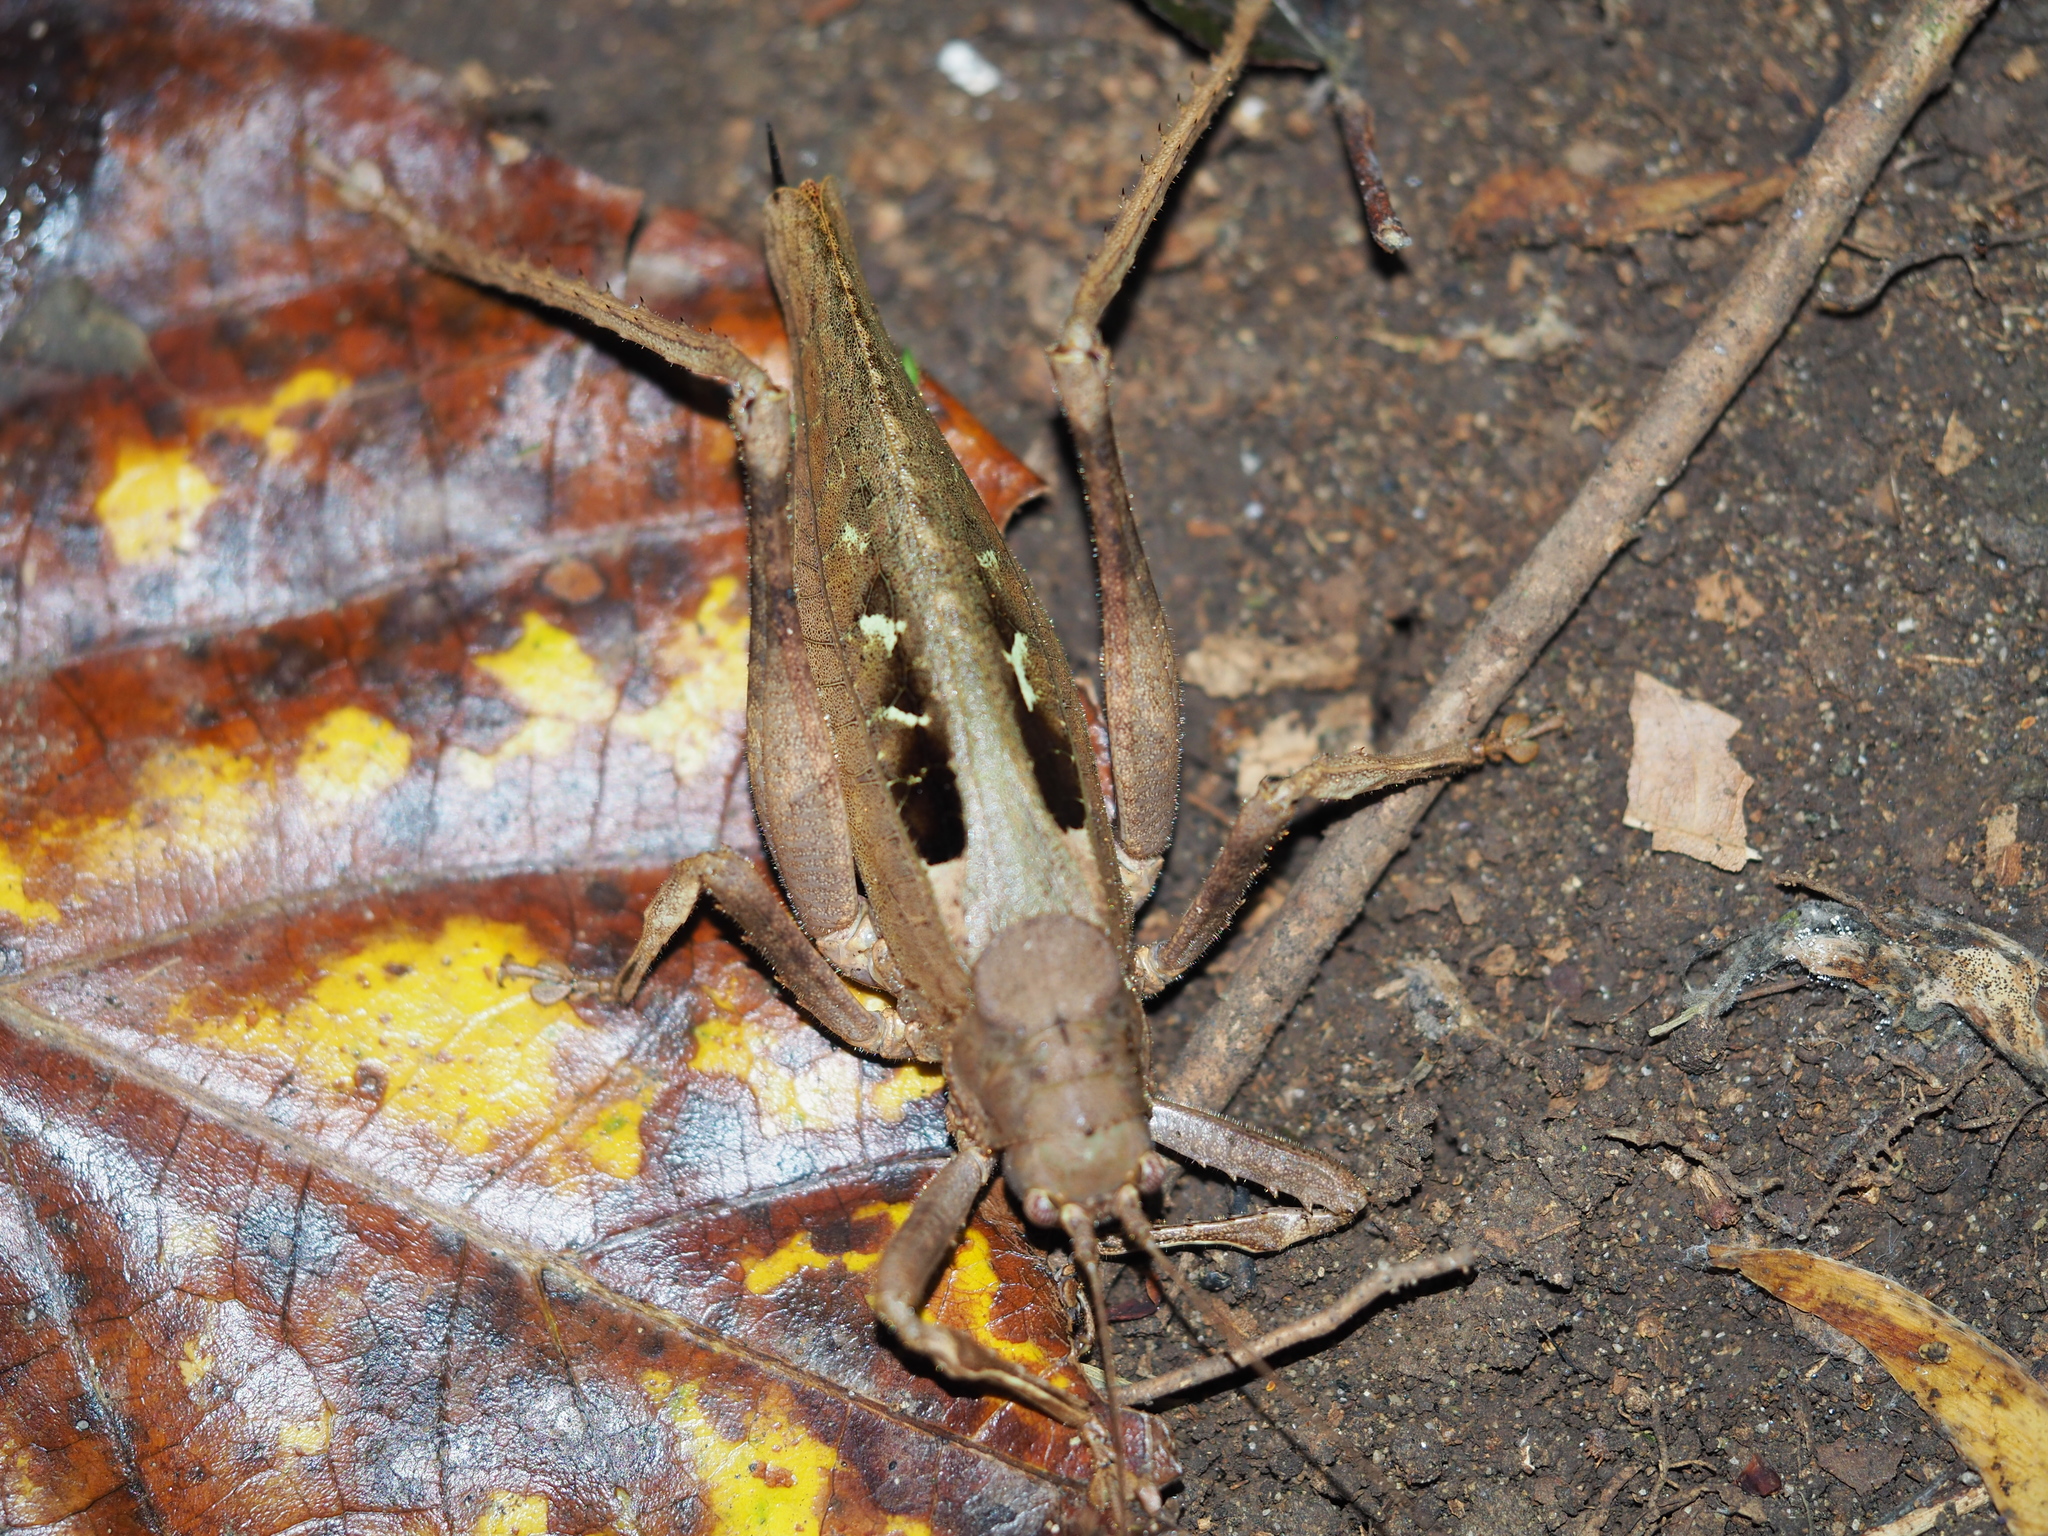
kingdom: Animalia
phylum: Arthropoda
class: Insecta
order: Orthoptera
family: Tettigoniidae
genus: Balboana
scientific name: Balboana tibialis
